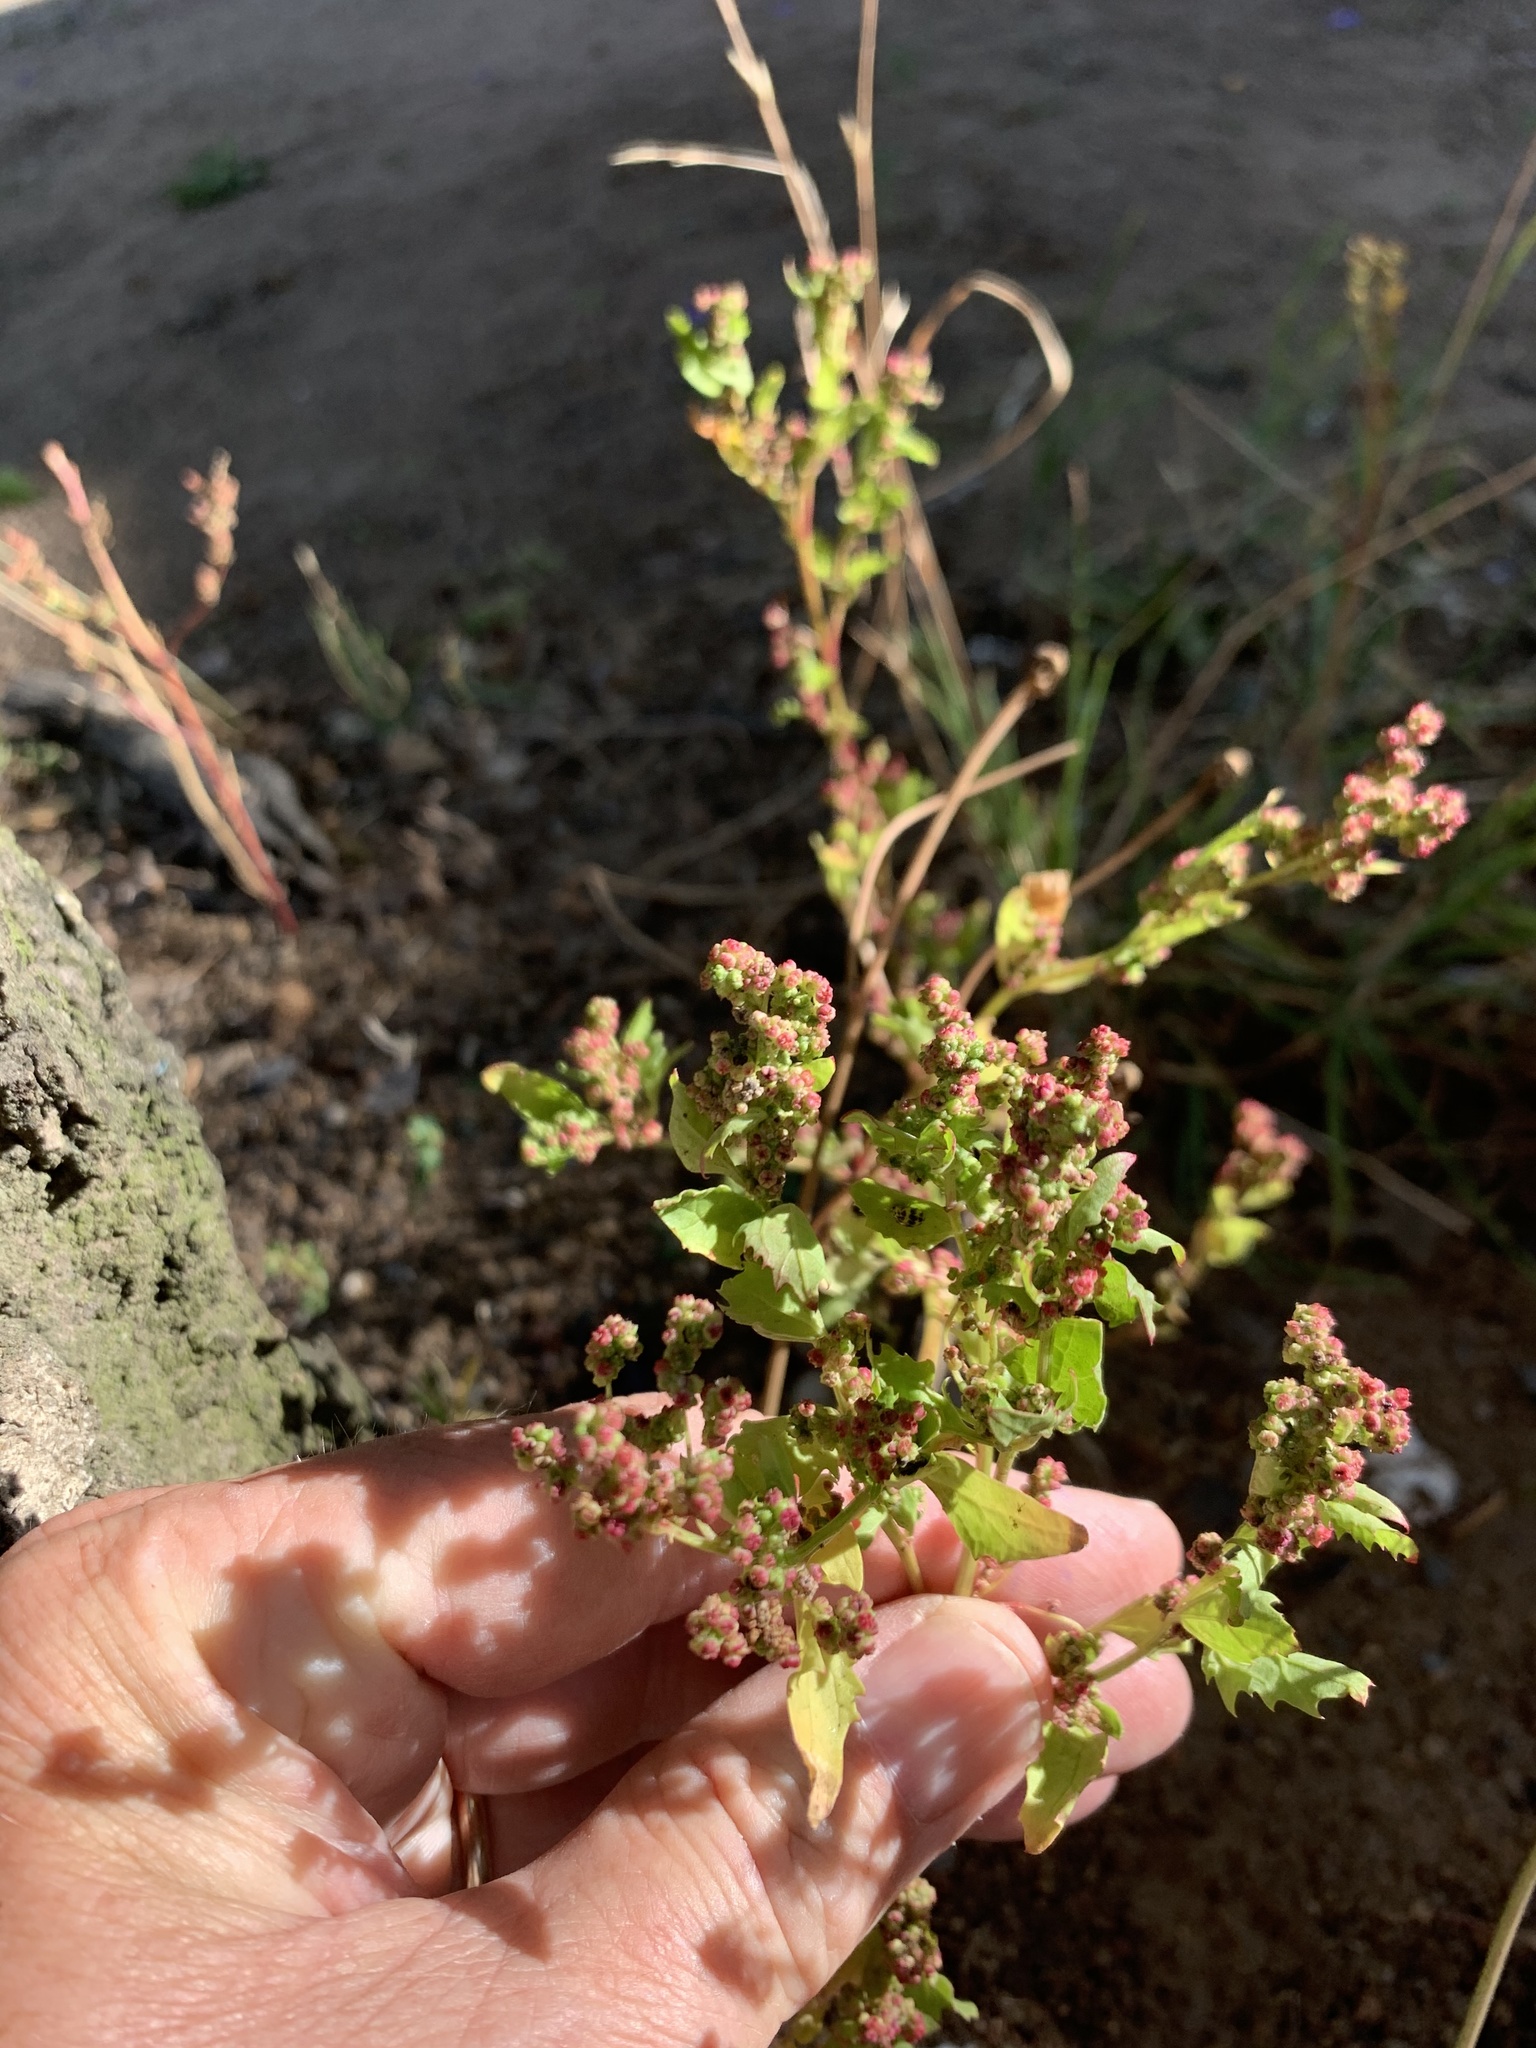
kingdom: Plantae
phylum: Tracheophyta
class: Magnoliopsida
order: Caryophyllales
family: Amaranthaceae
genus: Chenopodiastrum
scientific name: Chenopodiastrum murale
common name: Sowbane
